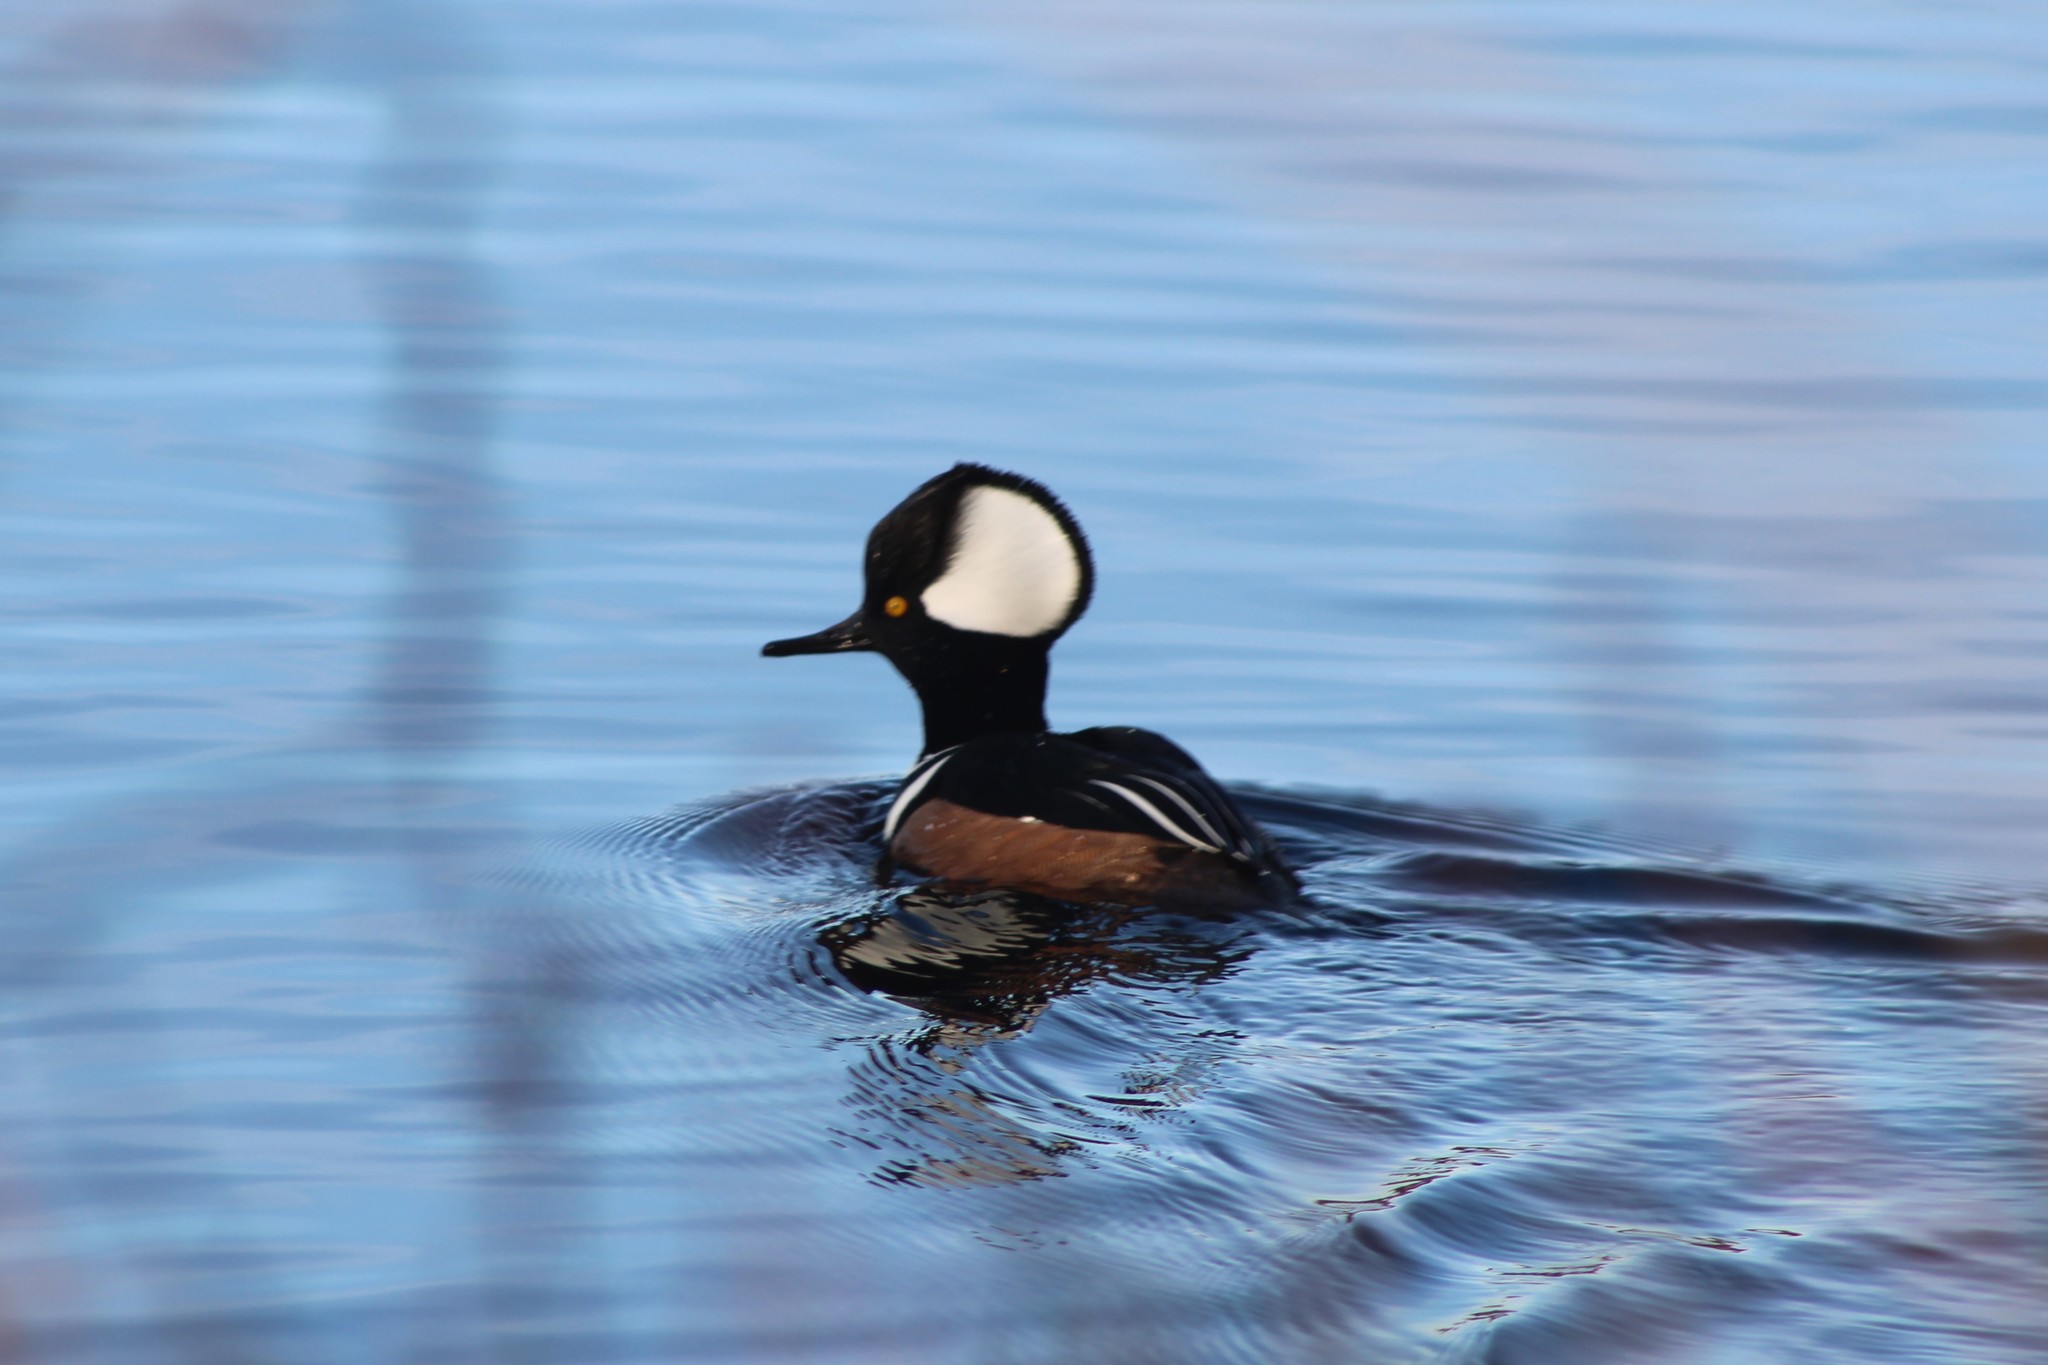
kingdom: Animalia
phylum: Chordata
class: Aves
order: Anseriformes
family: Anatidae
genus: Lophodytes
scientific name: Lophodytes cucullatus
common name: Hooded merganser
